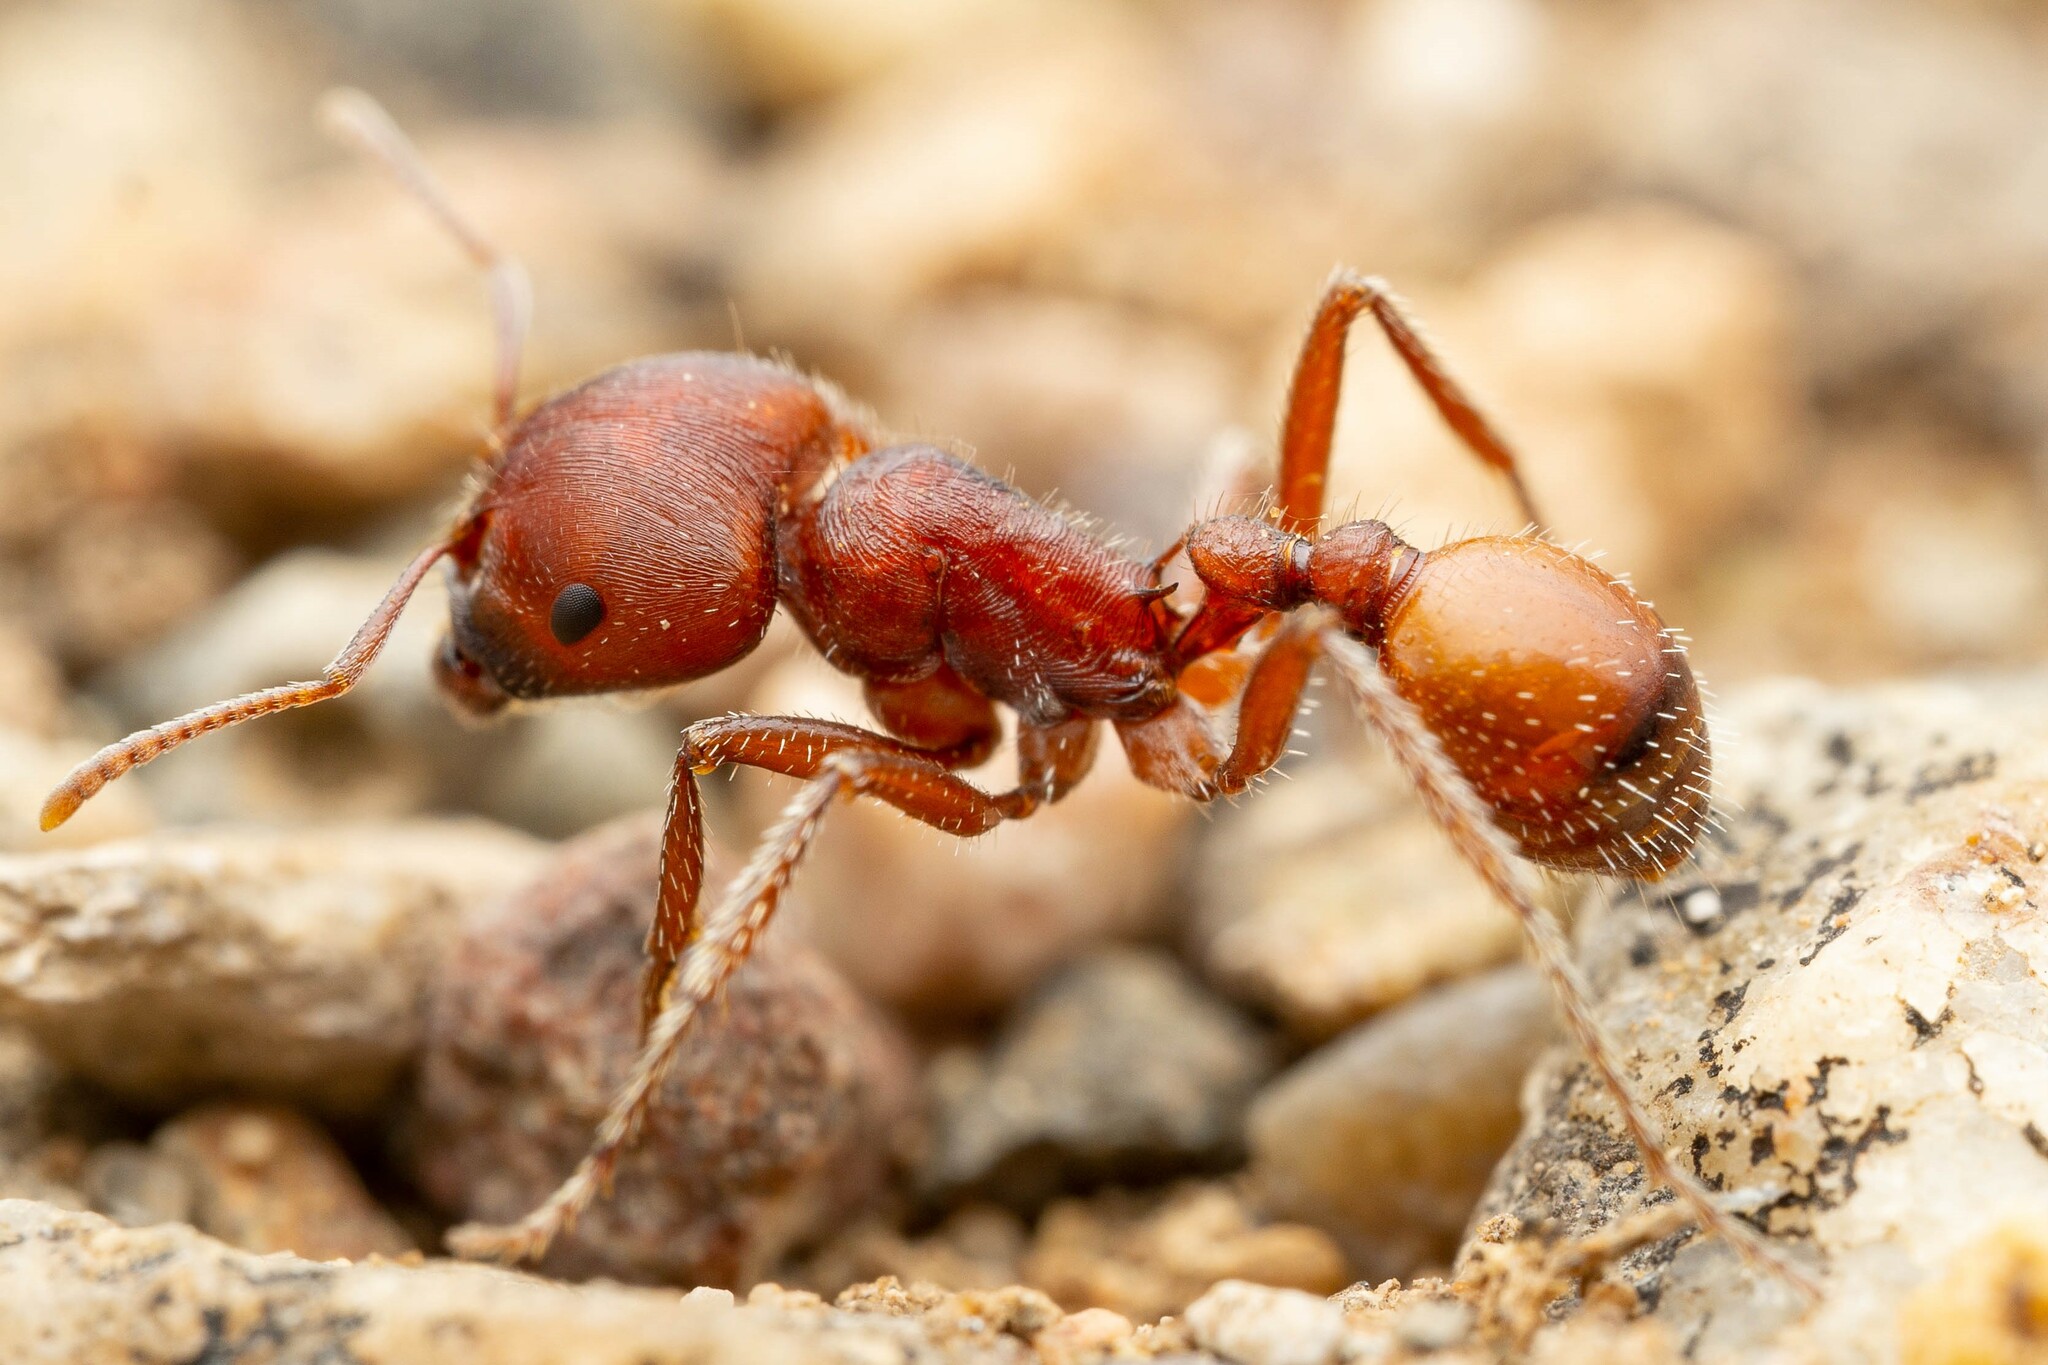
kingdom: Animalia
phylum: Arthropoda
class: Insecta
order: Hymenoptera
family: Formicidae
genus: Pogonomyrmex
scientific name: Pogonomyrmex barbatus
